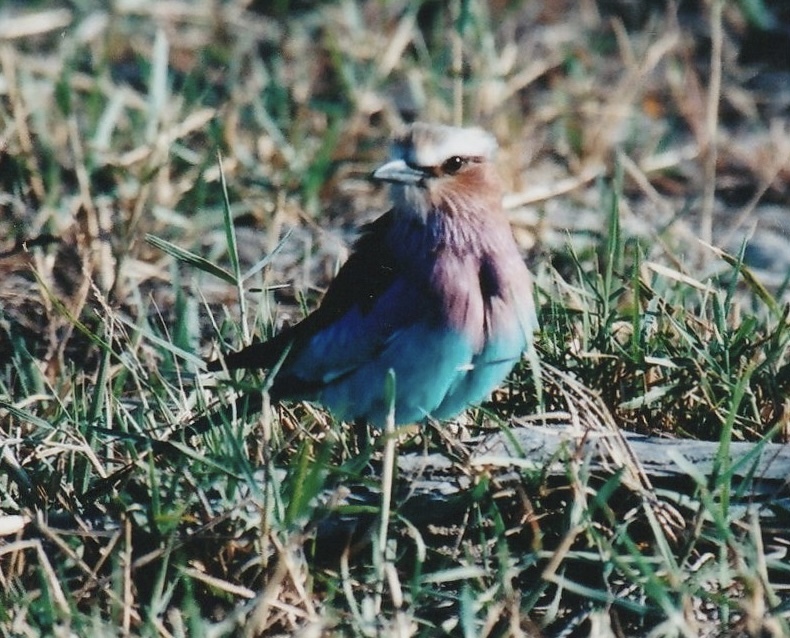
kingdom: Animalia
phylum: Chordata
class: Aves
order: Coraciiformes
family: Coraciidae
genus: Coracias
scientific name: Coracias caudatus
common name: Lilac-breasted roller
